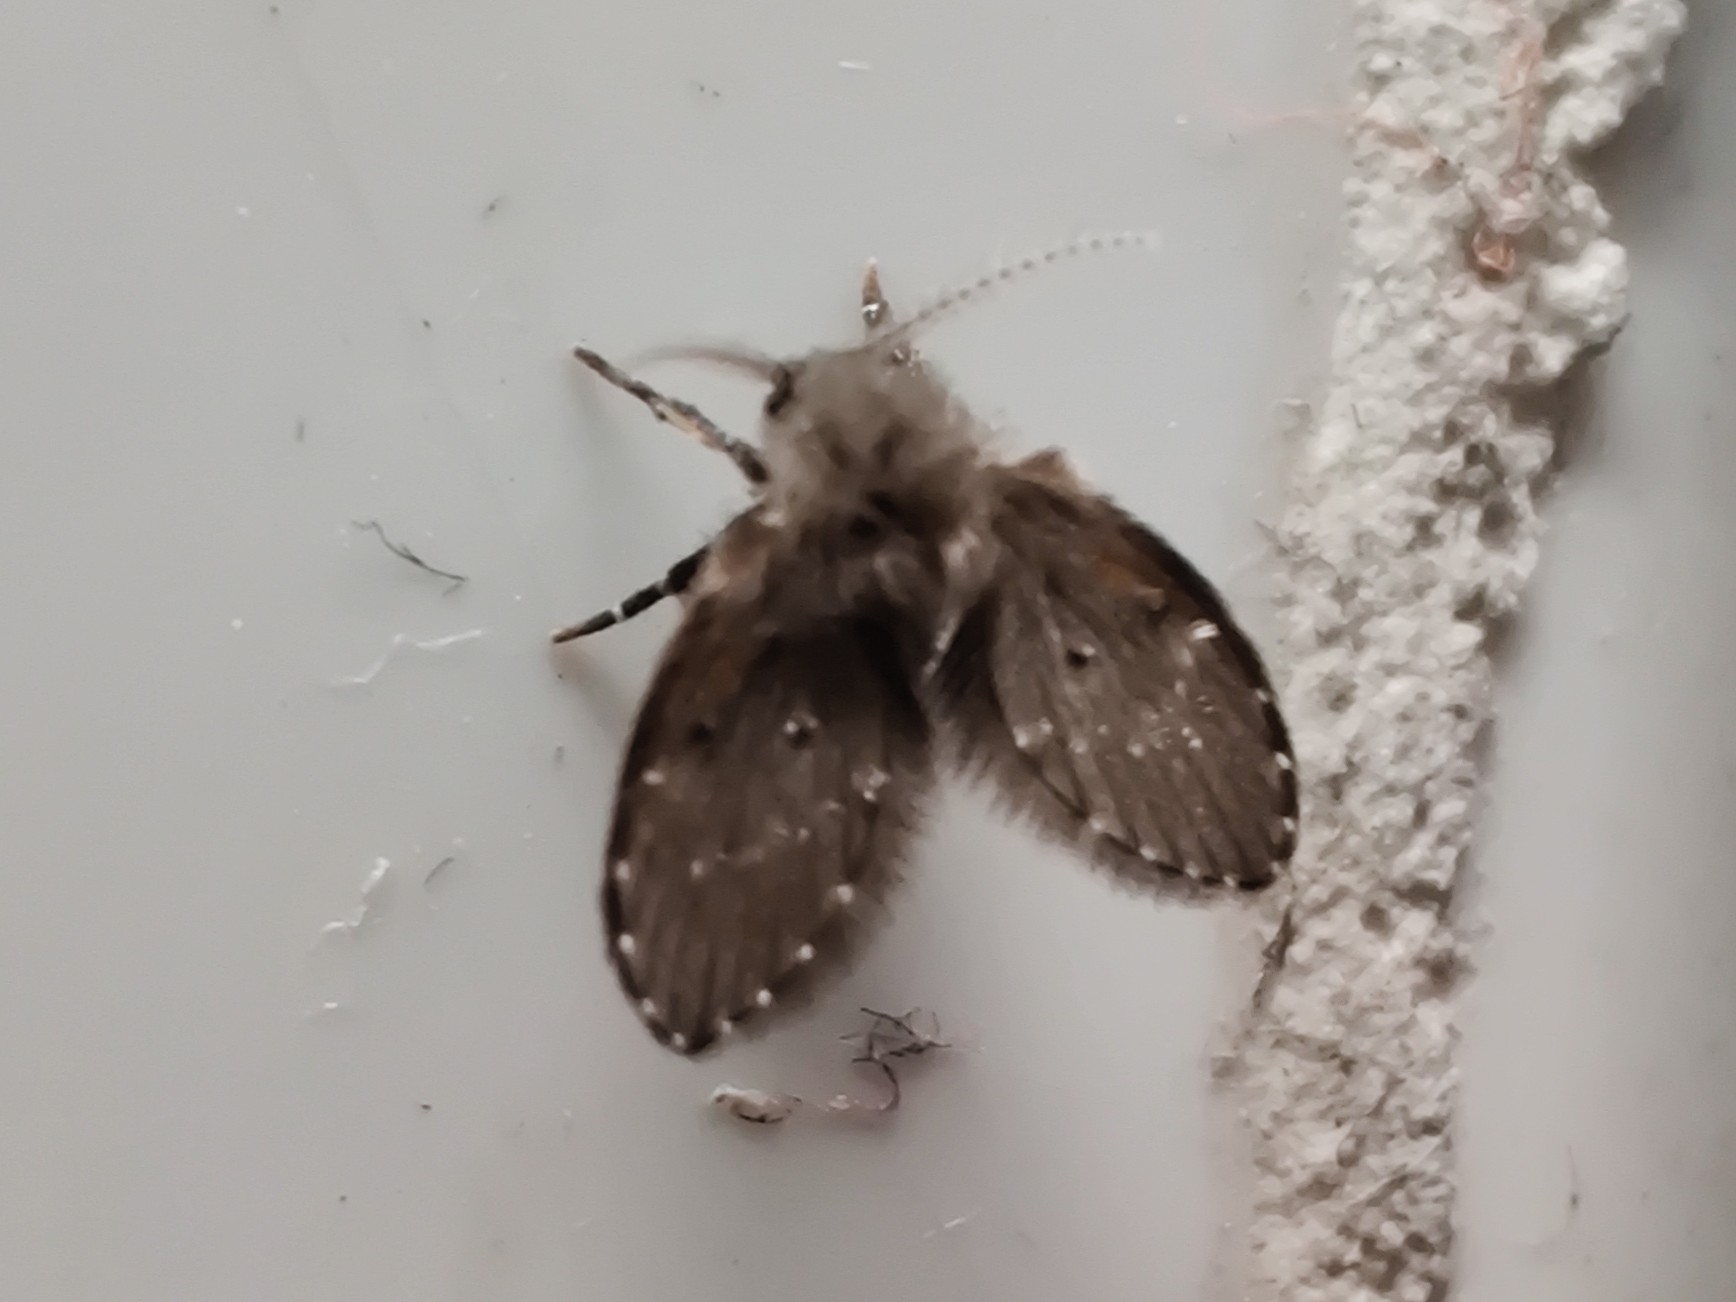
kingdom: Animalia
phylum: Arthropoda
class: Insecta
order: Diptera
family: Psychodidae
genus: Clogmia
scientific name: Clogmia albipunctatus
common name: White-spotted moth fly
